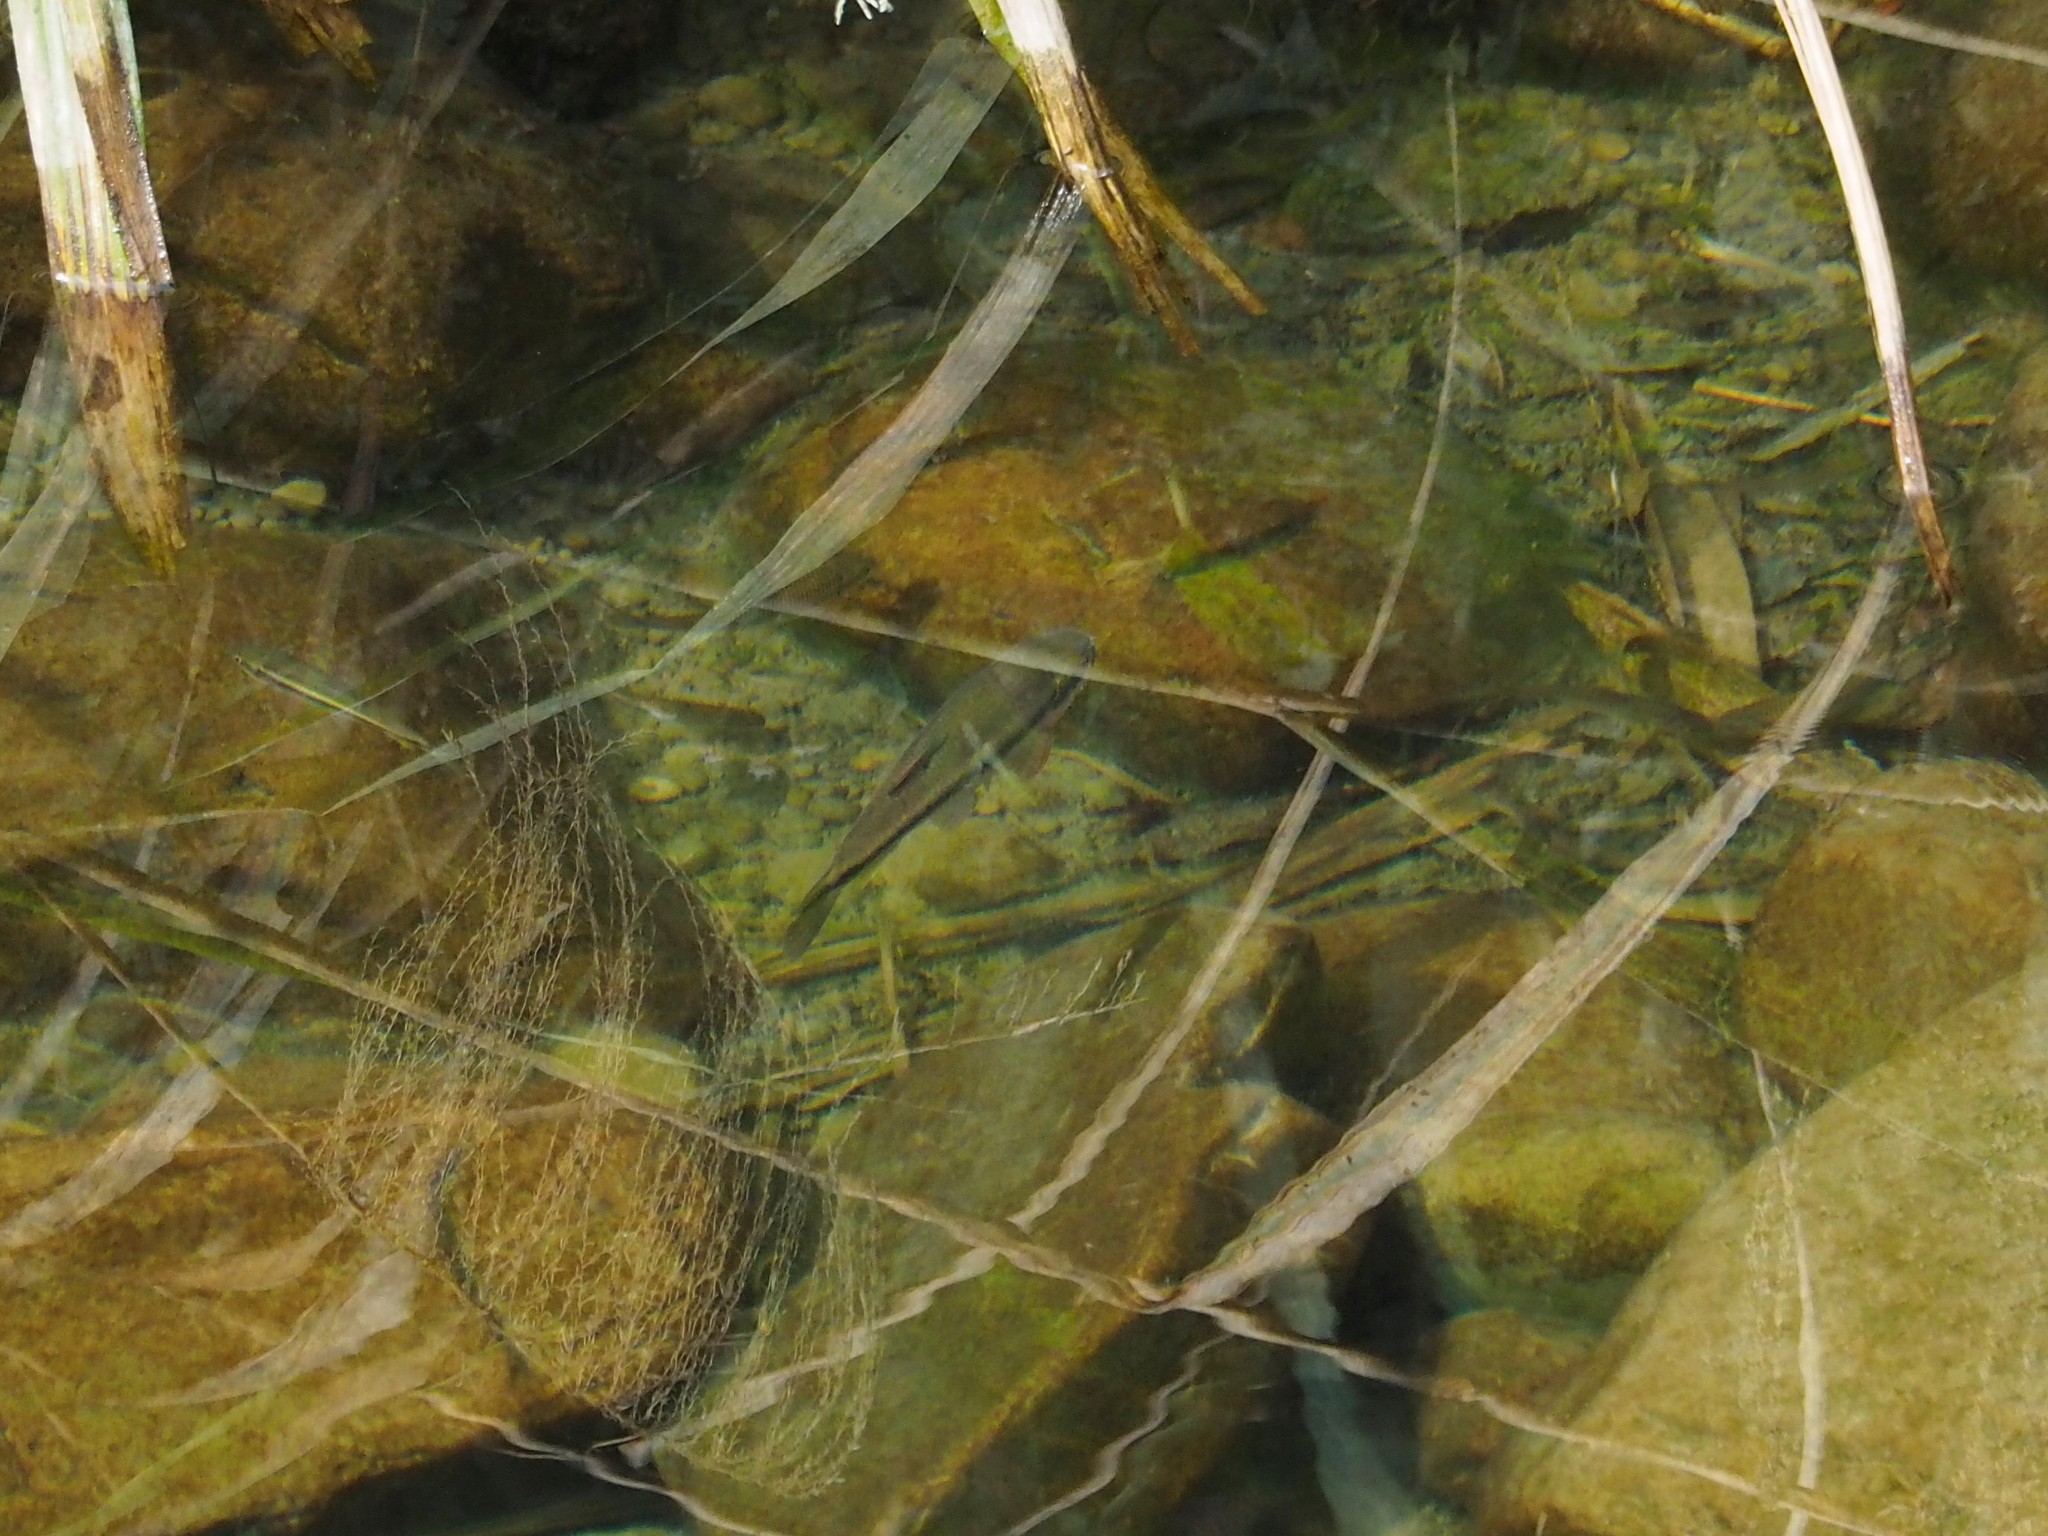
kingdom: Animalia
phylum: Chordata
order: Cypriniformes
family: Cyprinidae
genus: Candidia
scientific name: Candidia barbata
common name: Lake candidus dace
